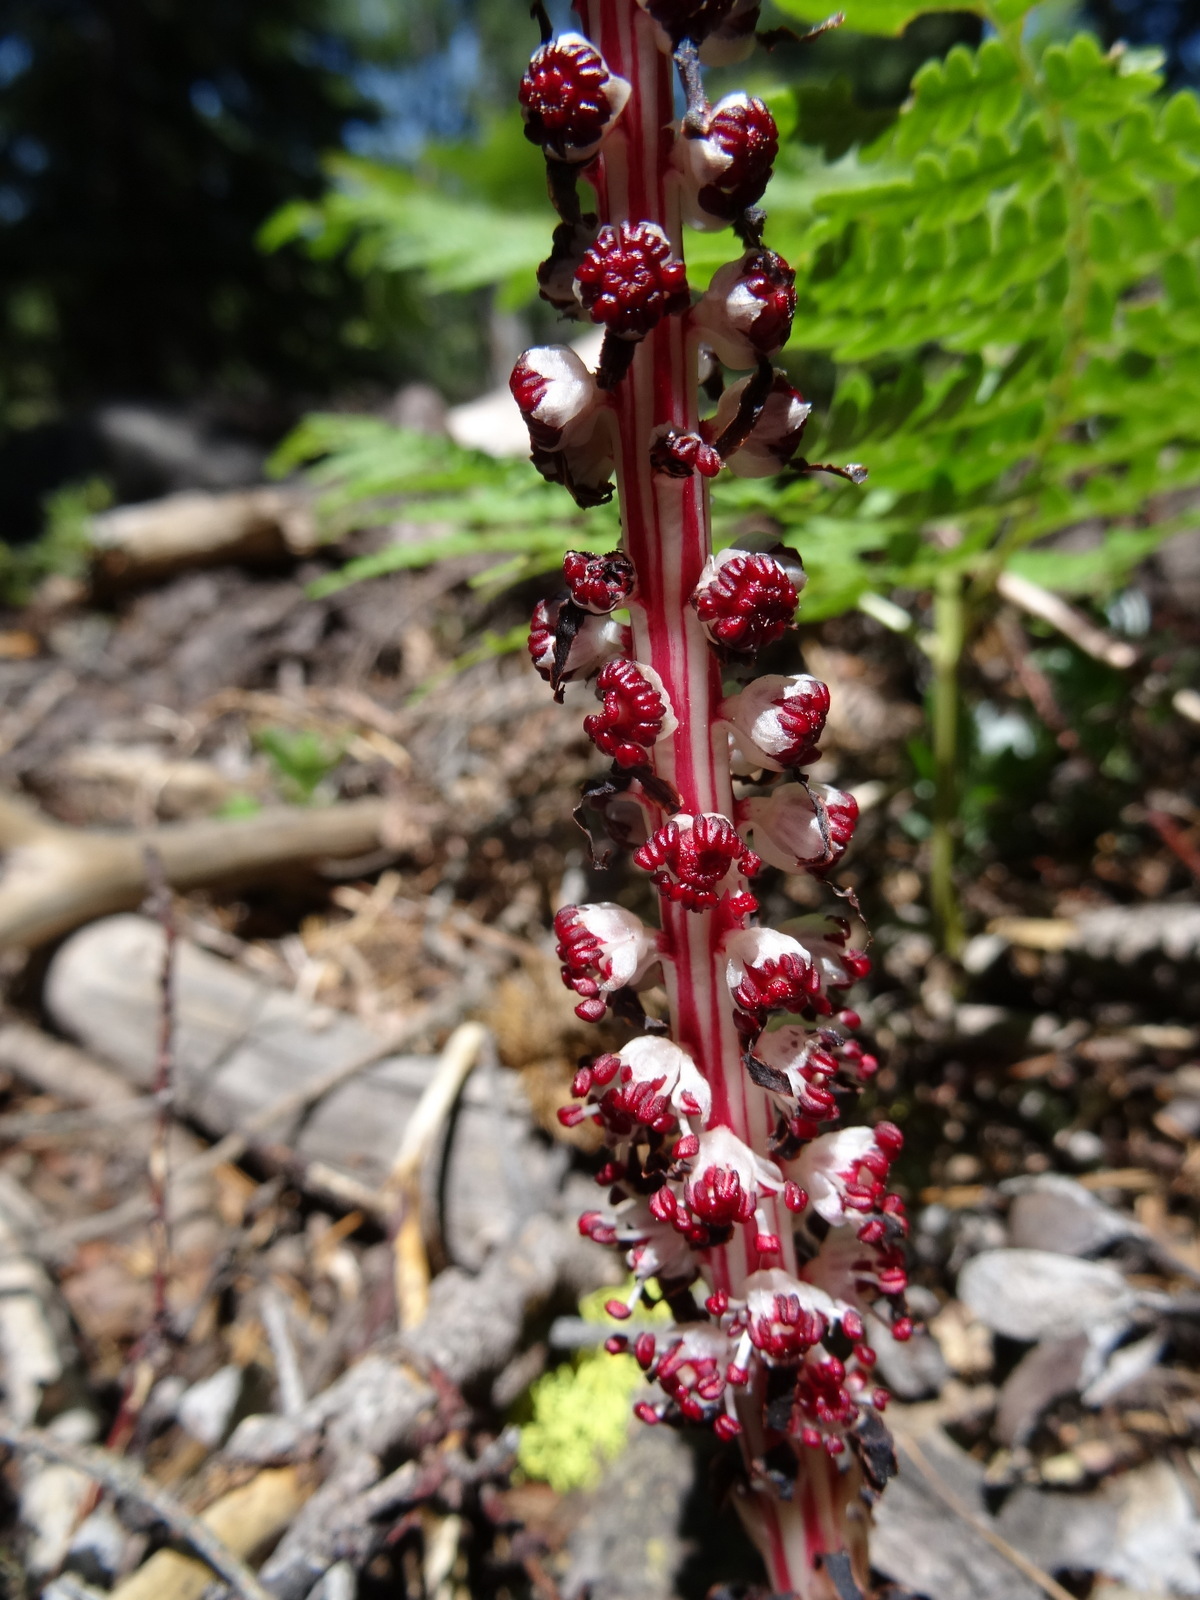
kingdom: Plantae
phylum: Tracheophyta
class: Magnoliopsida
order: Ericales
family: Ericaceae
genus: Allotropa
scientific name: Allotropa virgata
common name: Candy-striped allotropa
